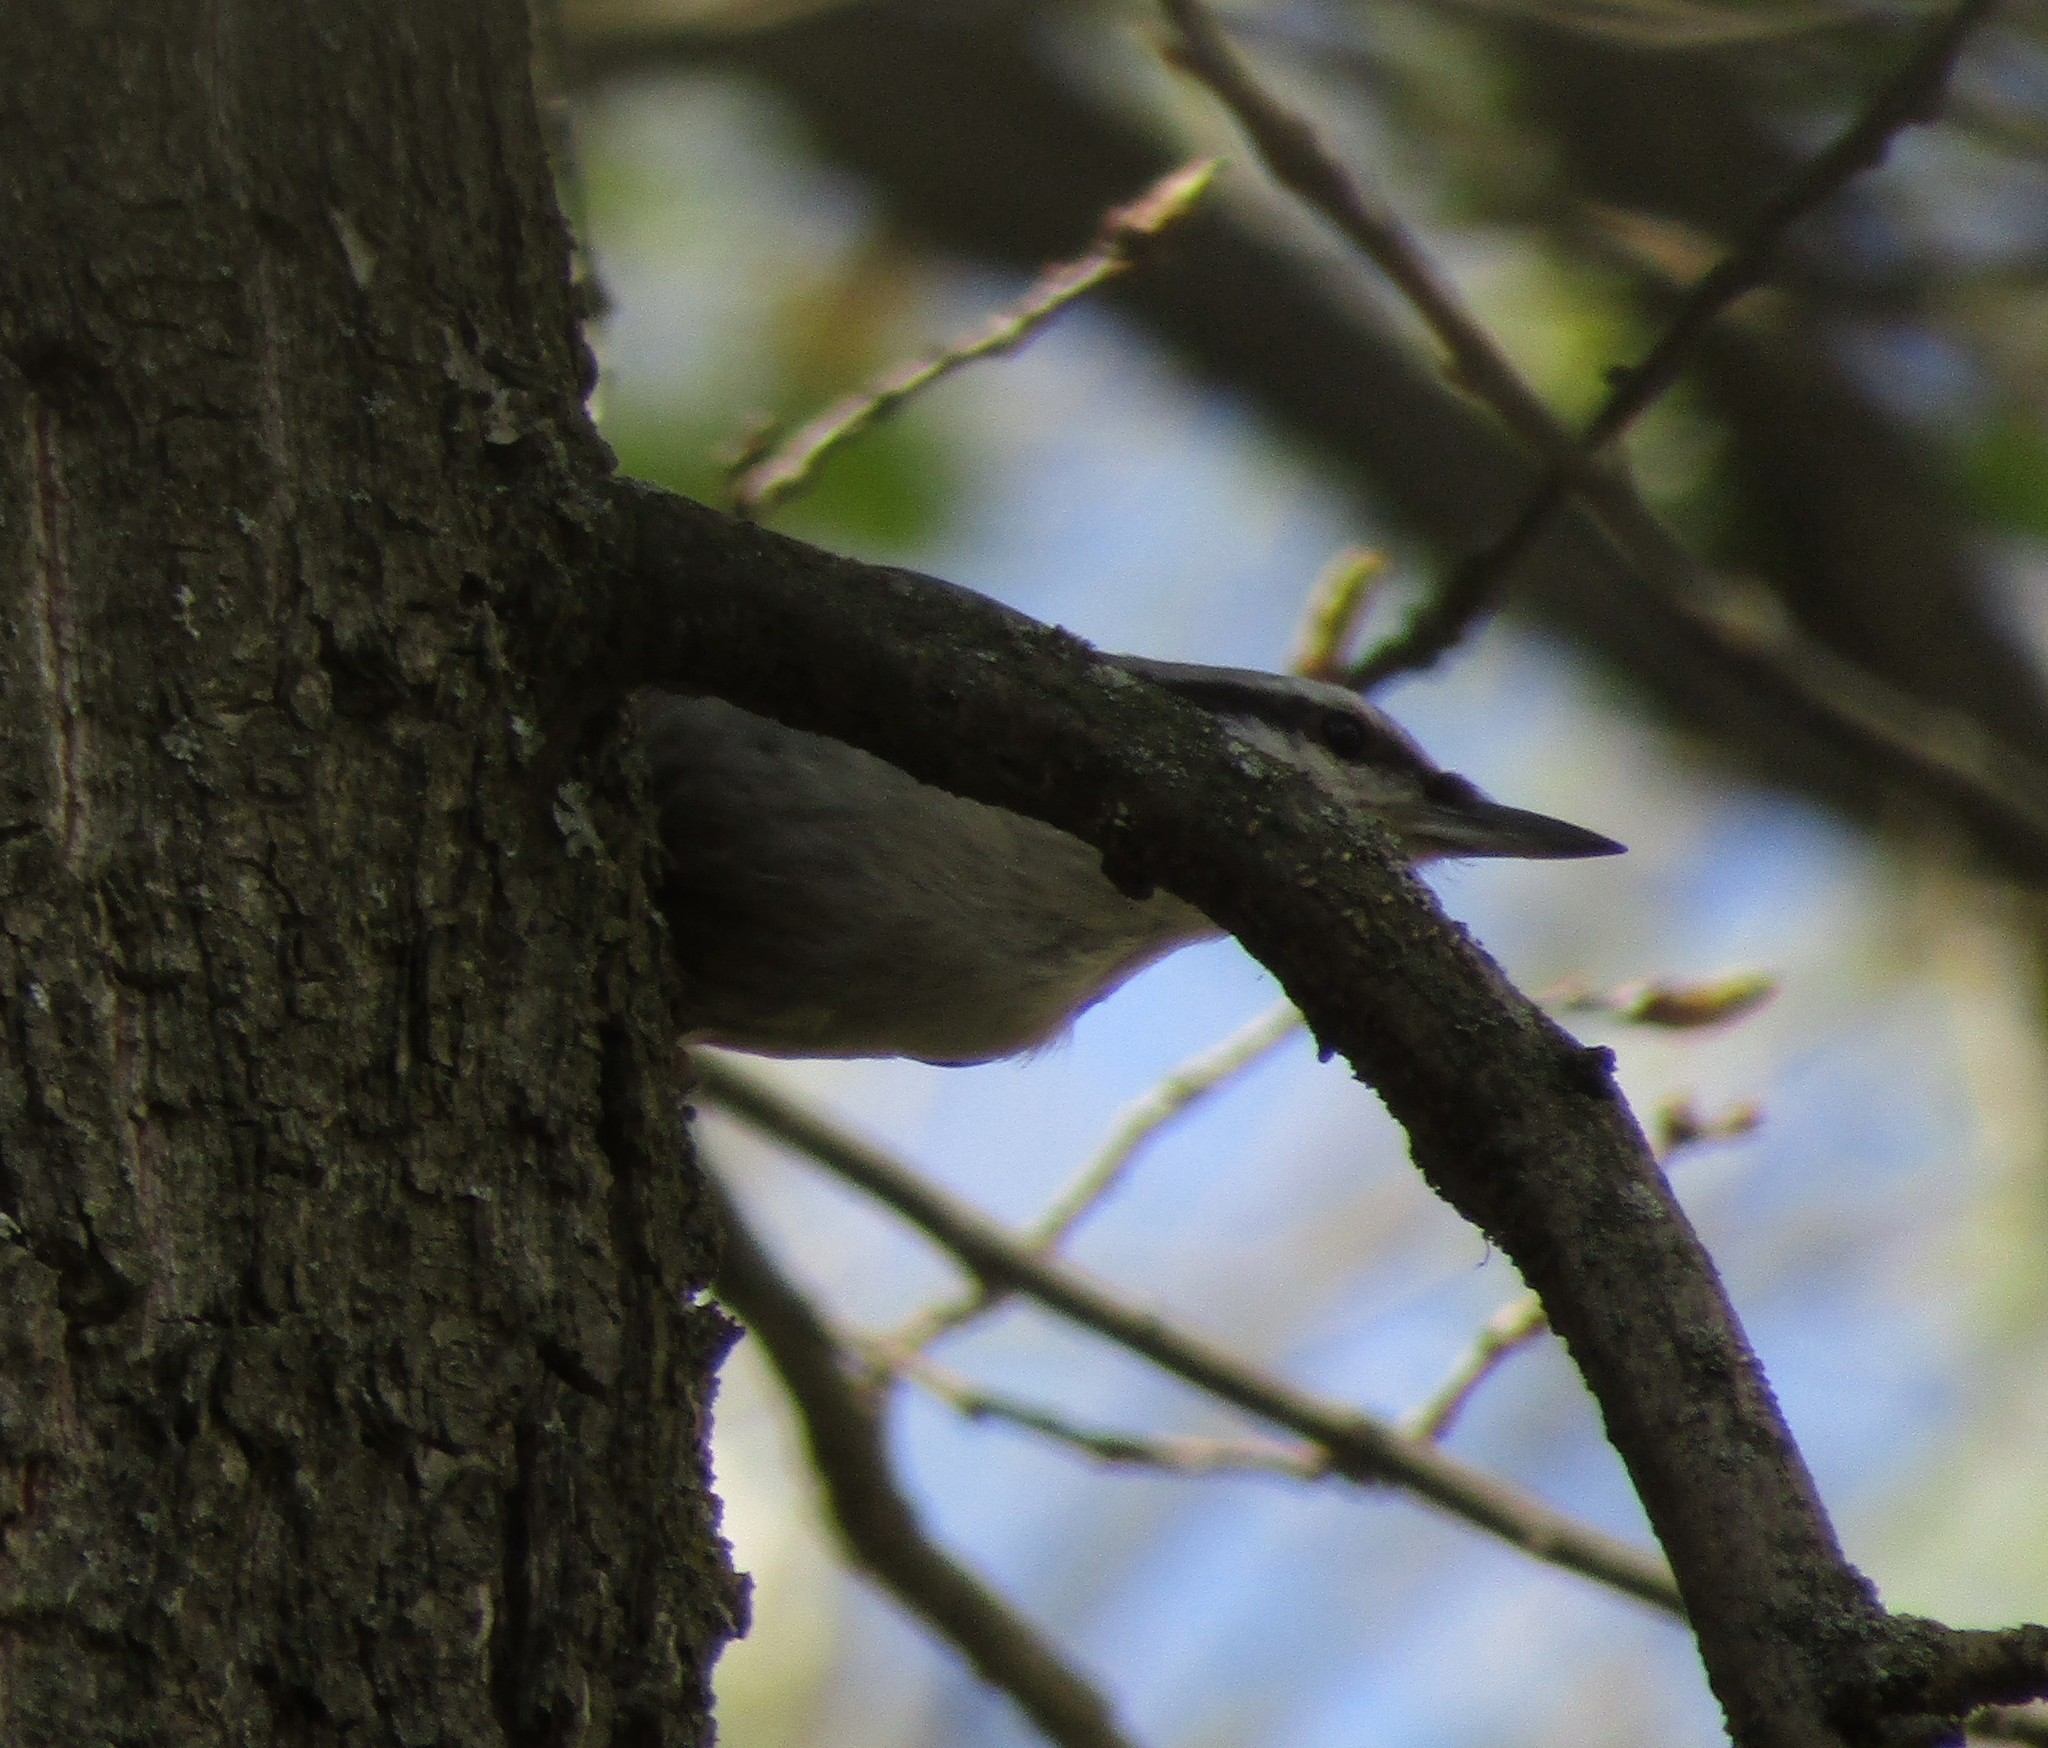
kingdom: Animalia
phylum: Chordata
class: Aves
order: Passeriformes
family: Sittidae
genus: Sitta
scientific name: Sitta europaea
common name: Eurasian nuthatch
